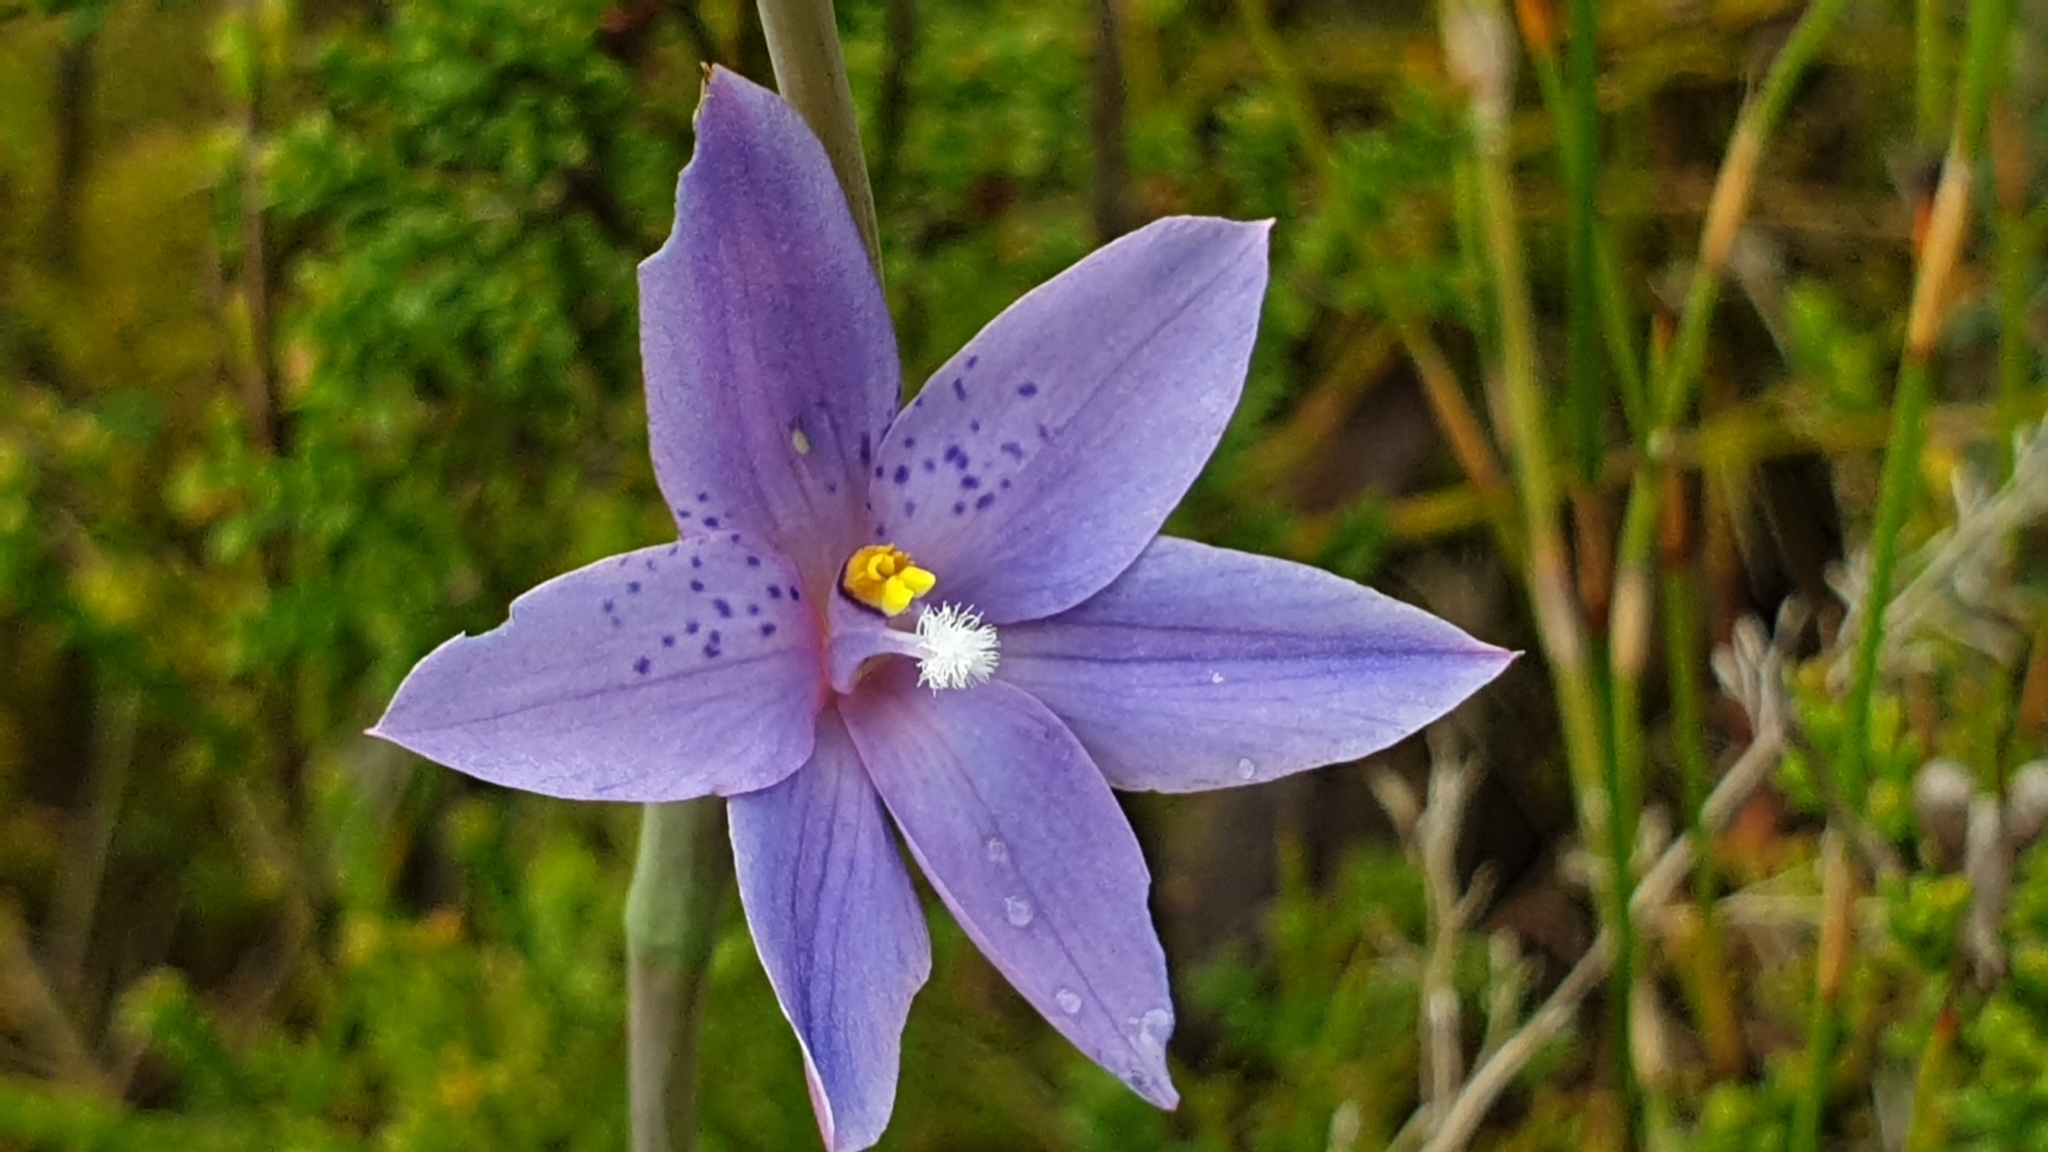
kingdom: Plantae
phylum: Tracheophyta
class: Liliopsida
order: Asparagales
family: Orchidaceae
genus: Thelymitra
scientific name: Thelymitra ixioides
